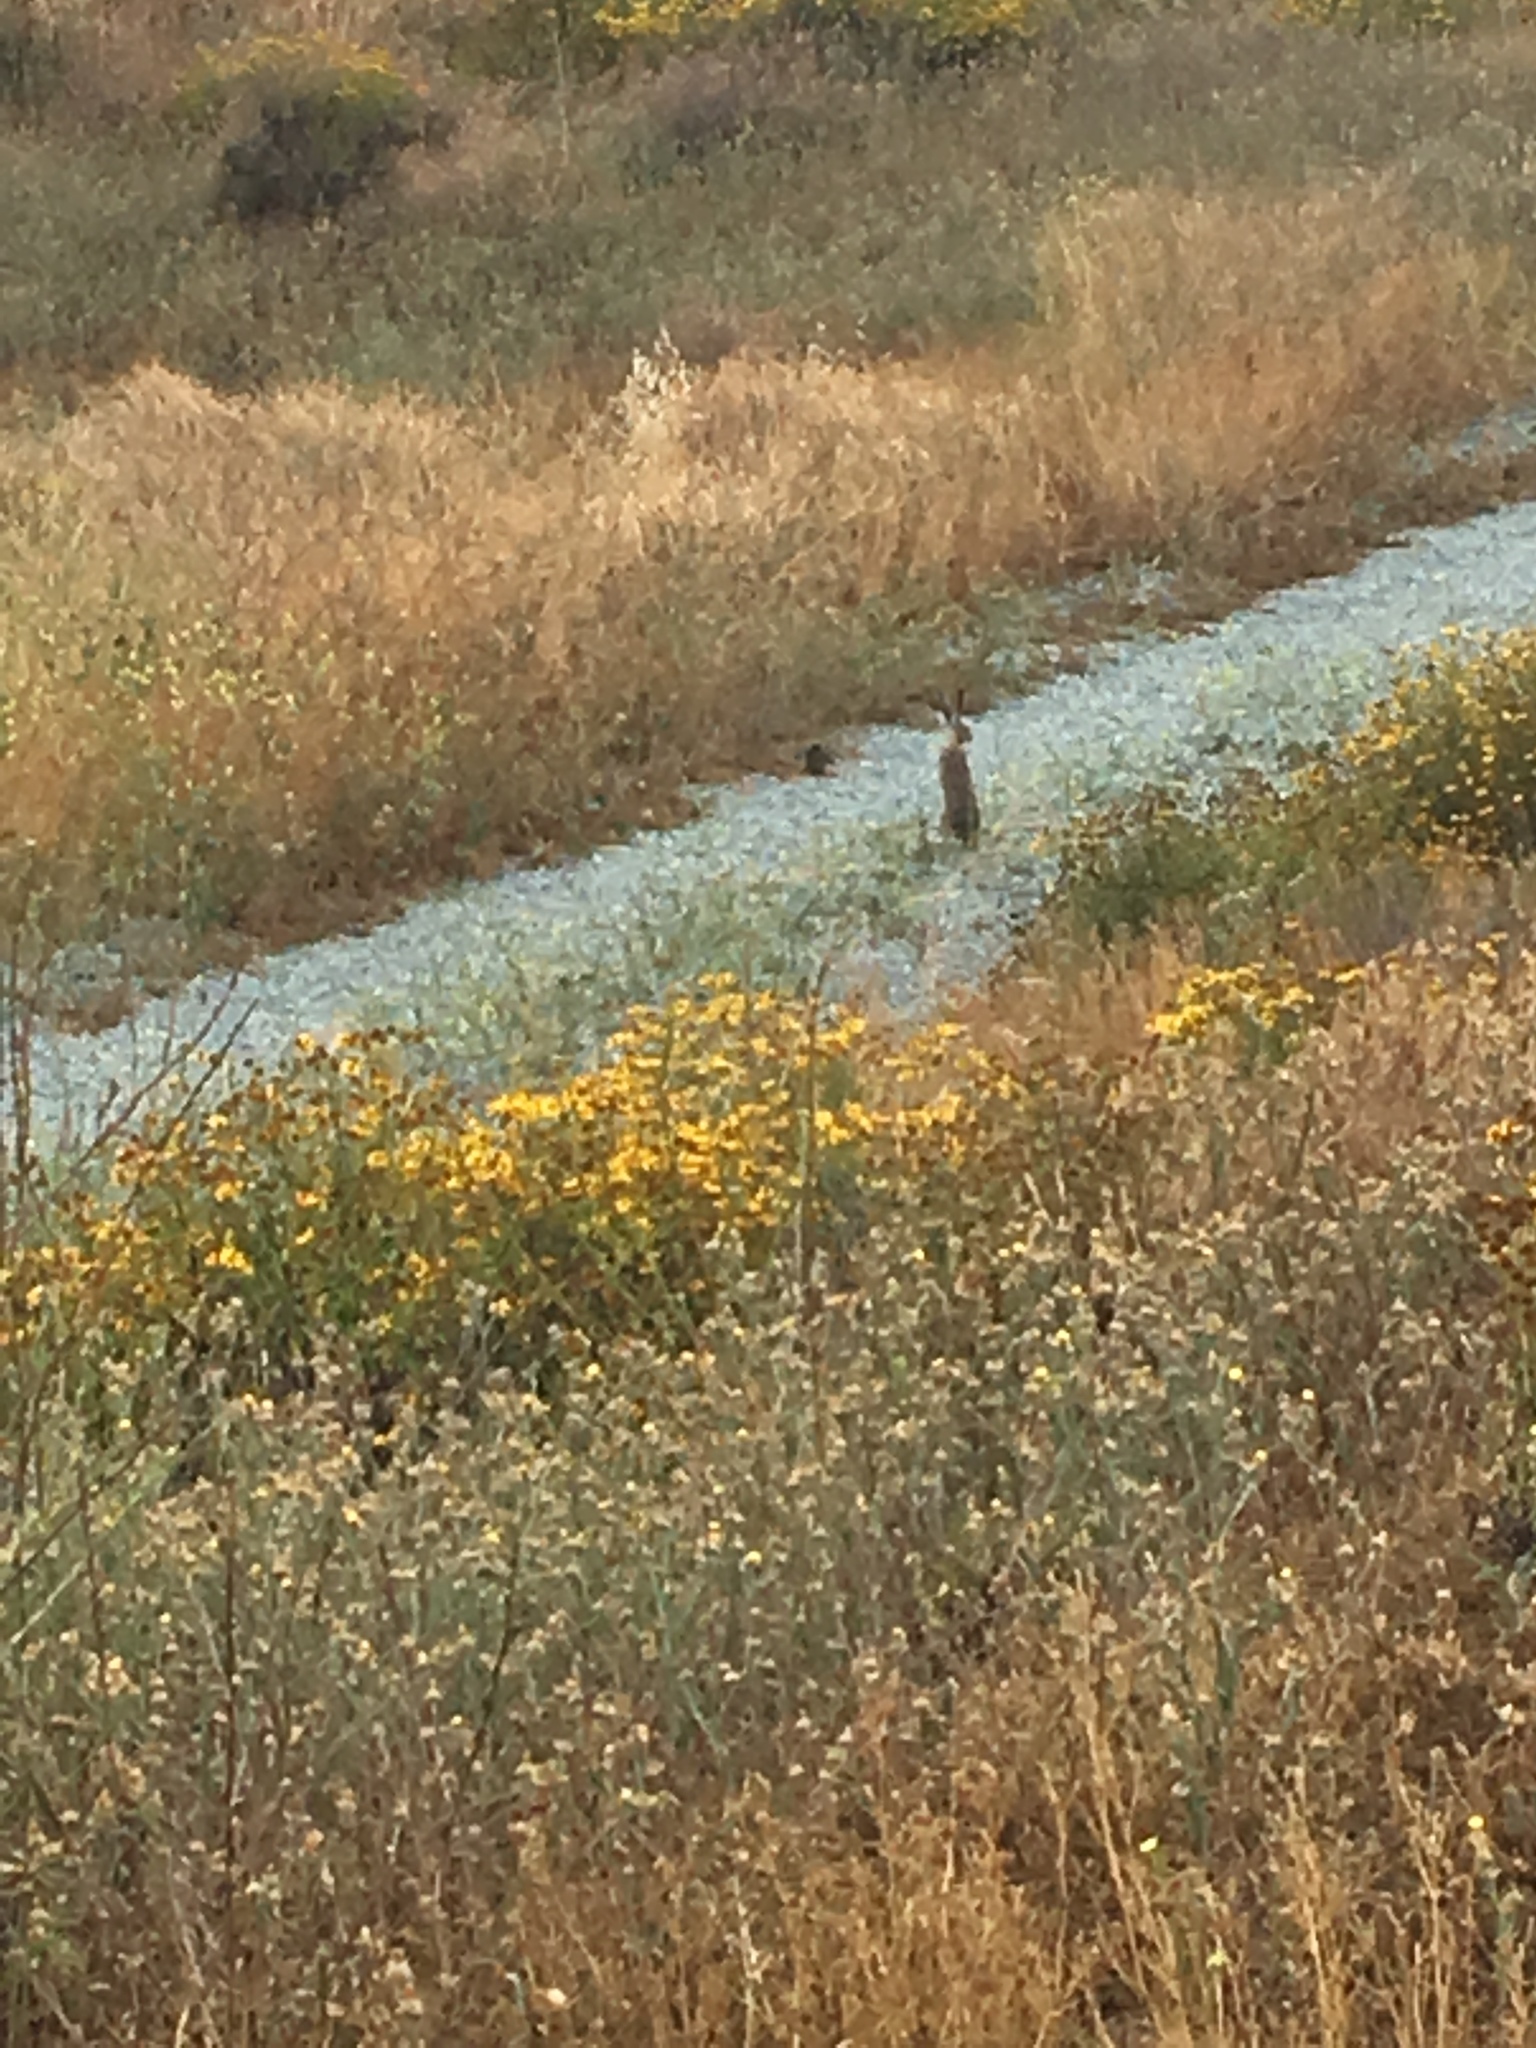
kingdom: Animalia
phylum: Chordata
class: Mammalia
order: Lagomorpha
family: Leporidae
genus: Lepus
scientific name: Lepus californicus
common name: Black-tailed jackrabbit
